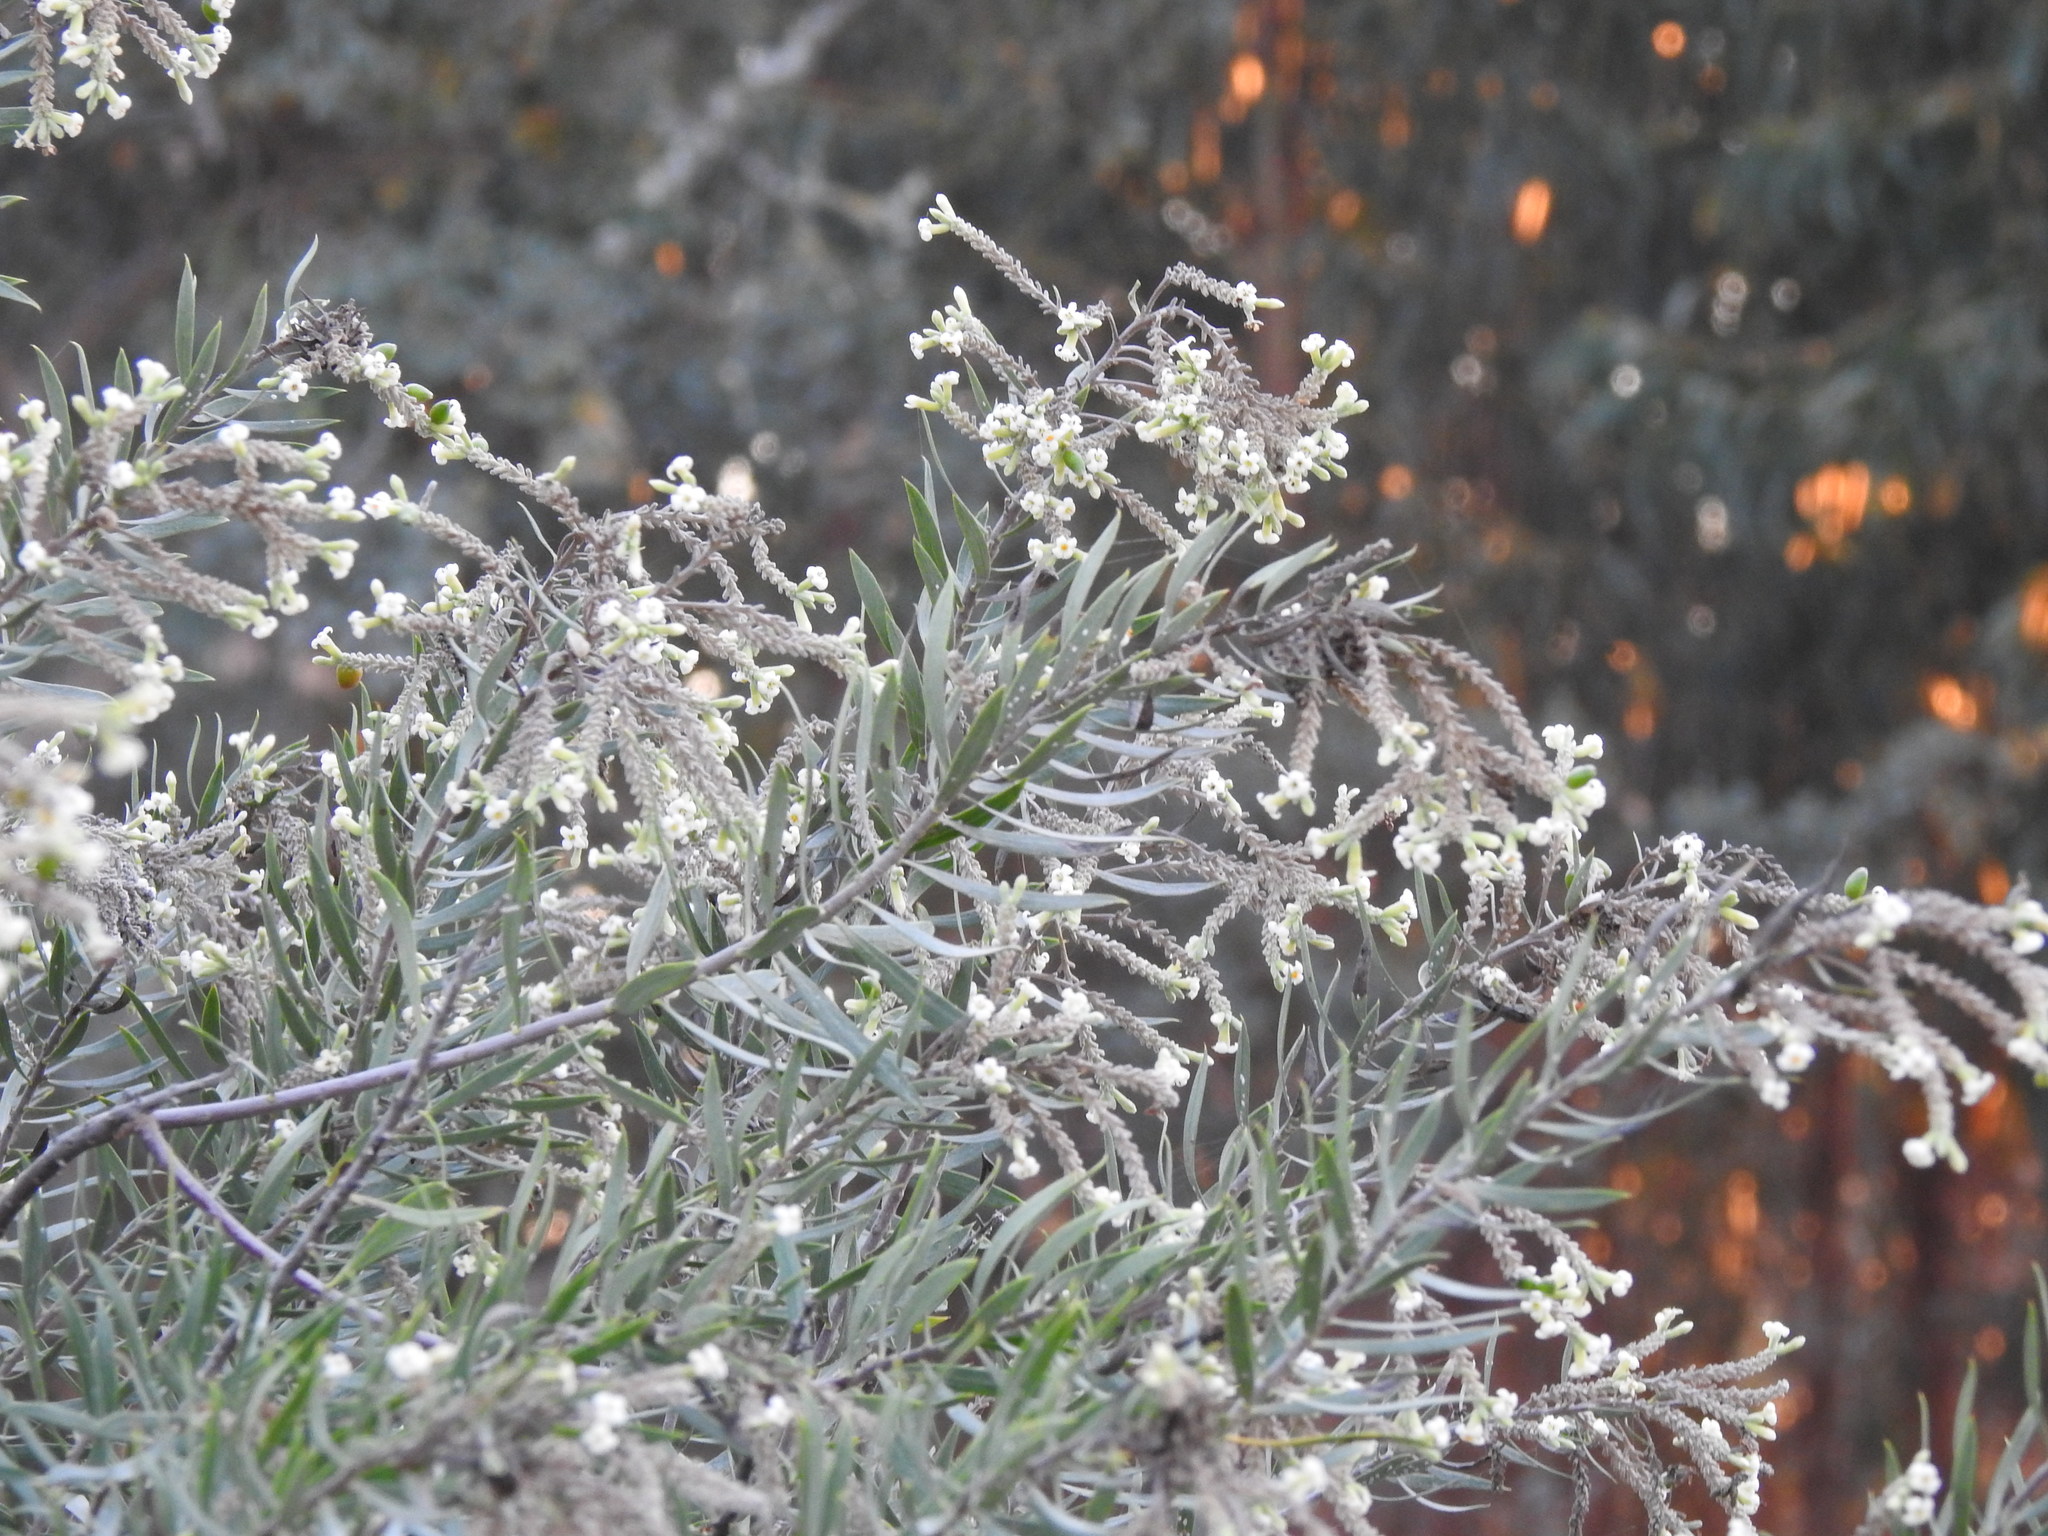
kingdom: Plantae
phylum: Tracheophyta
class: Magnoliopsida
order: Malvales
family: Thymelaeaceae
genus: Daphne
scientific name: Daphne gnidium
